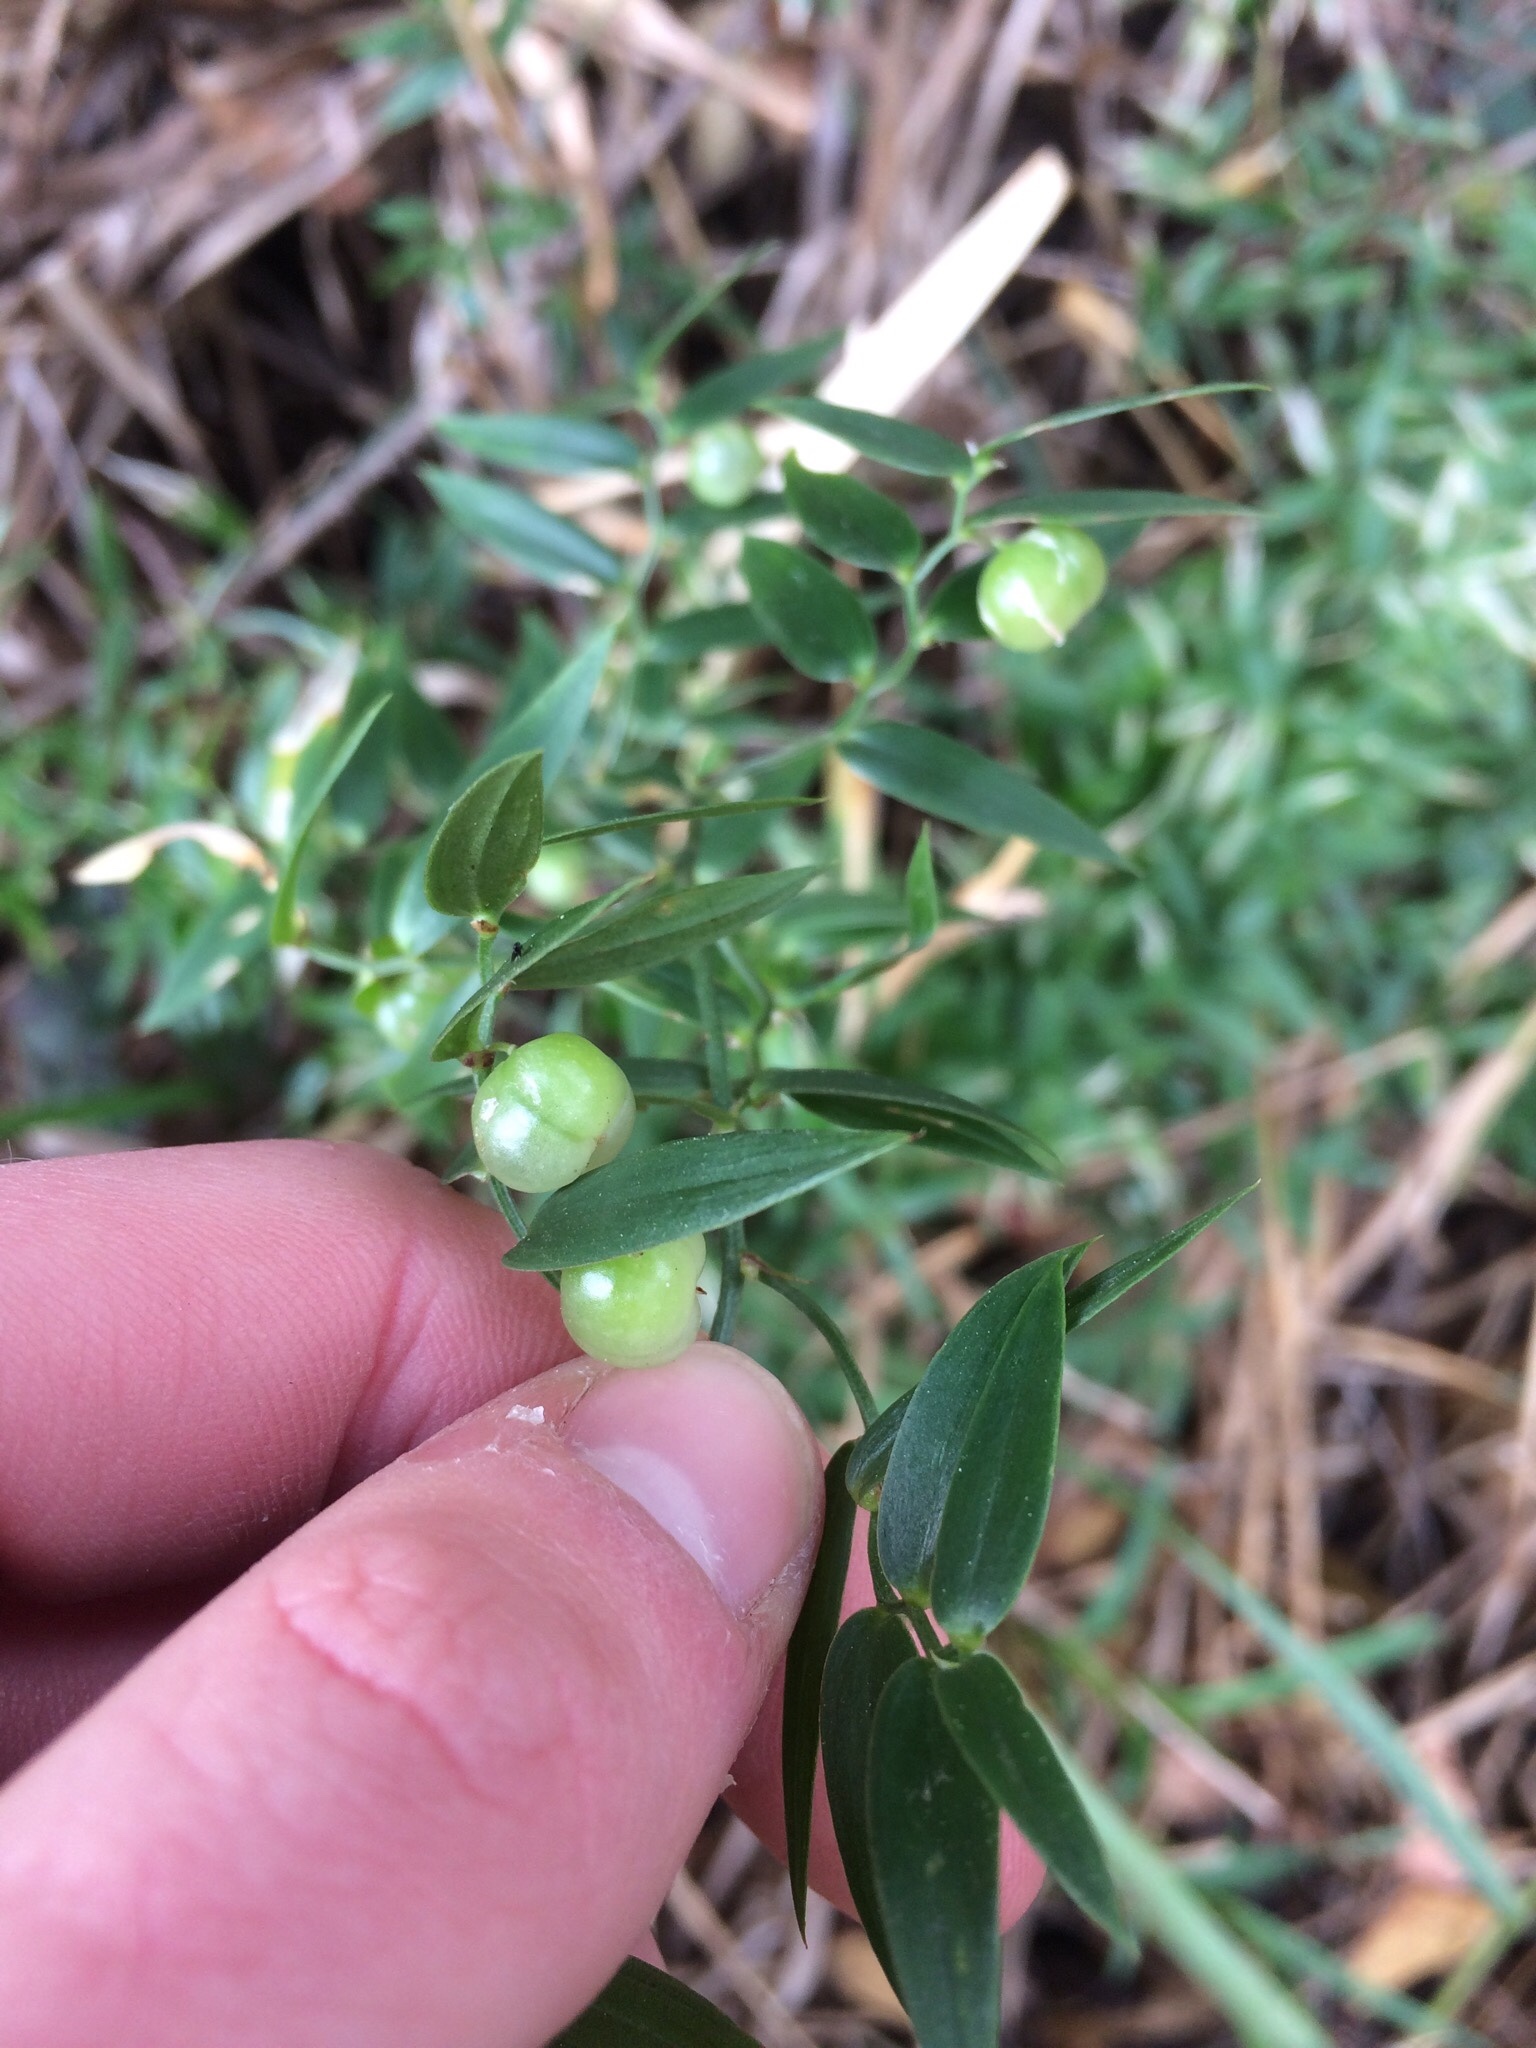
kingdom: Plantae
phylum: Tracheophyta
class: Liliopsida
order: Asparagales
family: Asparagaceae
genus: Asparagus
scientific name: Asparagus asparagoides
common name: African asparagus fern
